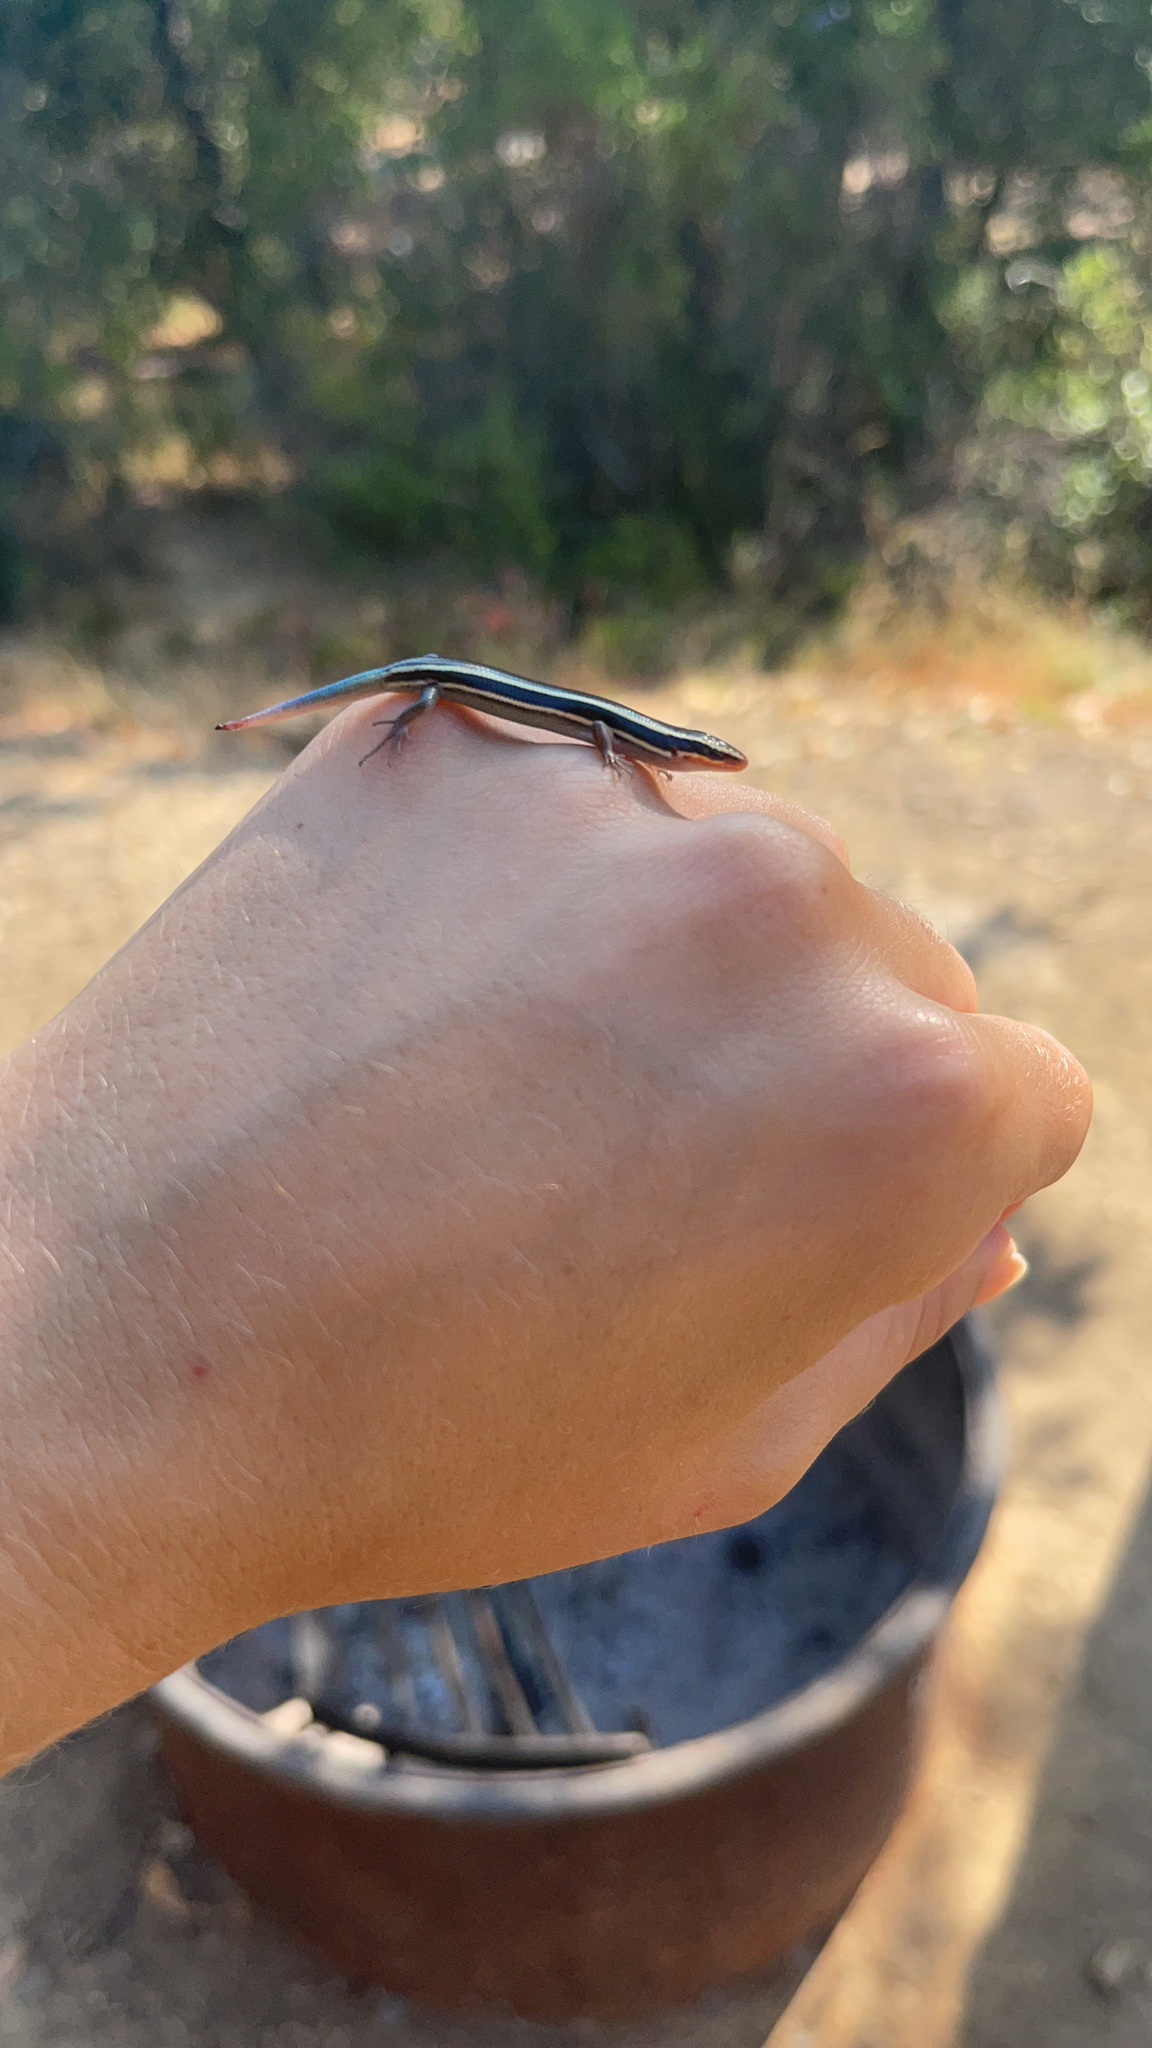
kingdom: Animalia
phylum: Chordata
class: Squamata
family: Scincidae
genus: Plestiodon
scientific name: Plestiodon skiltonianus
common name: Coronado island skink [interparietalis]
